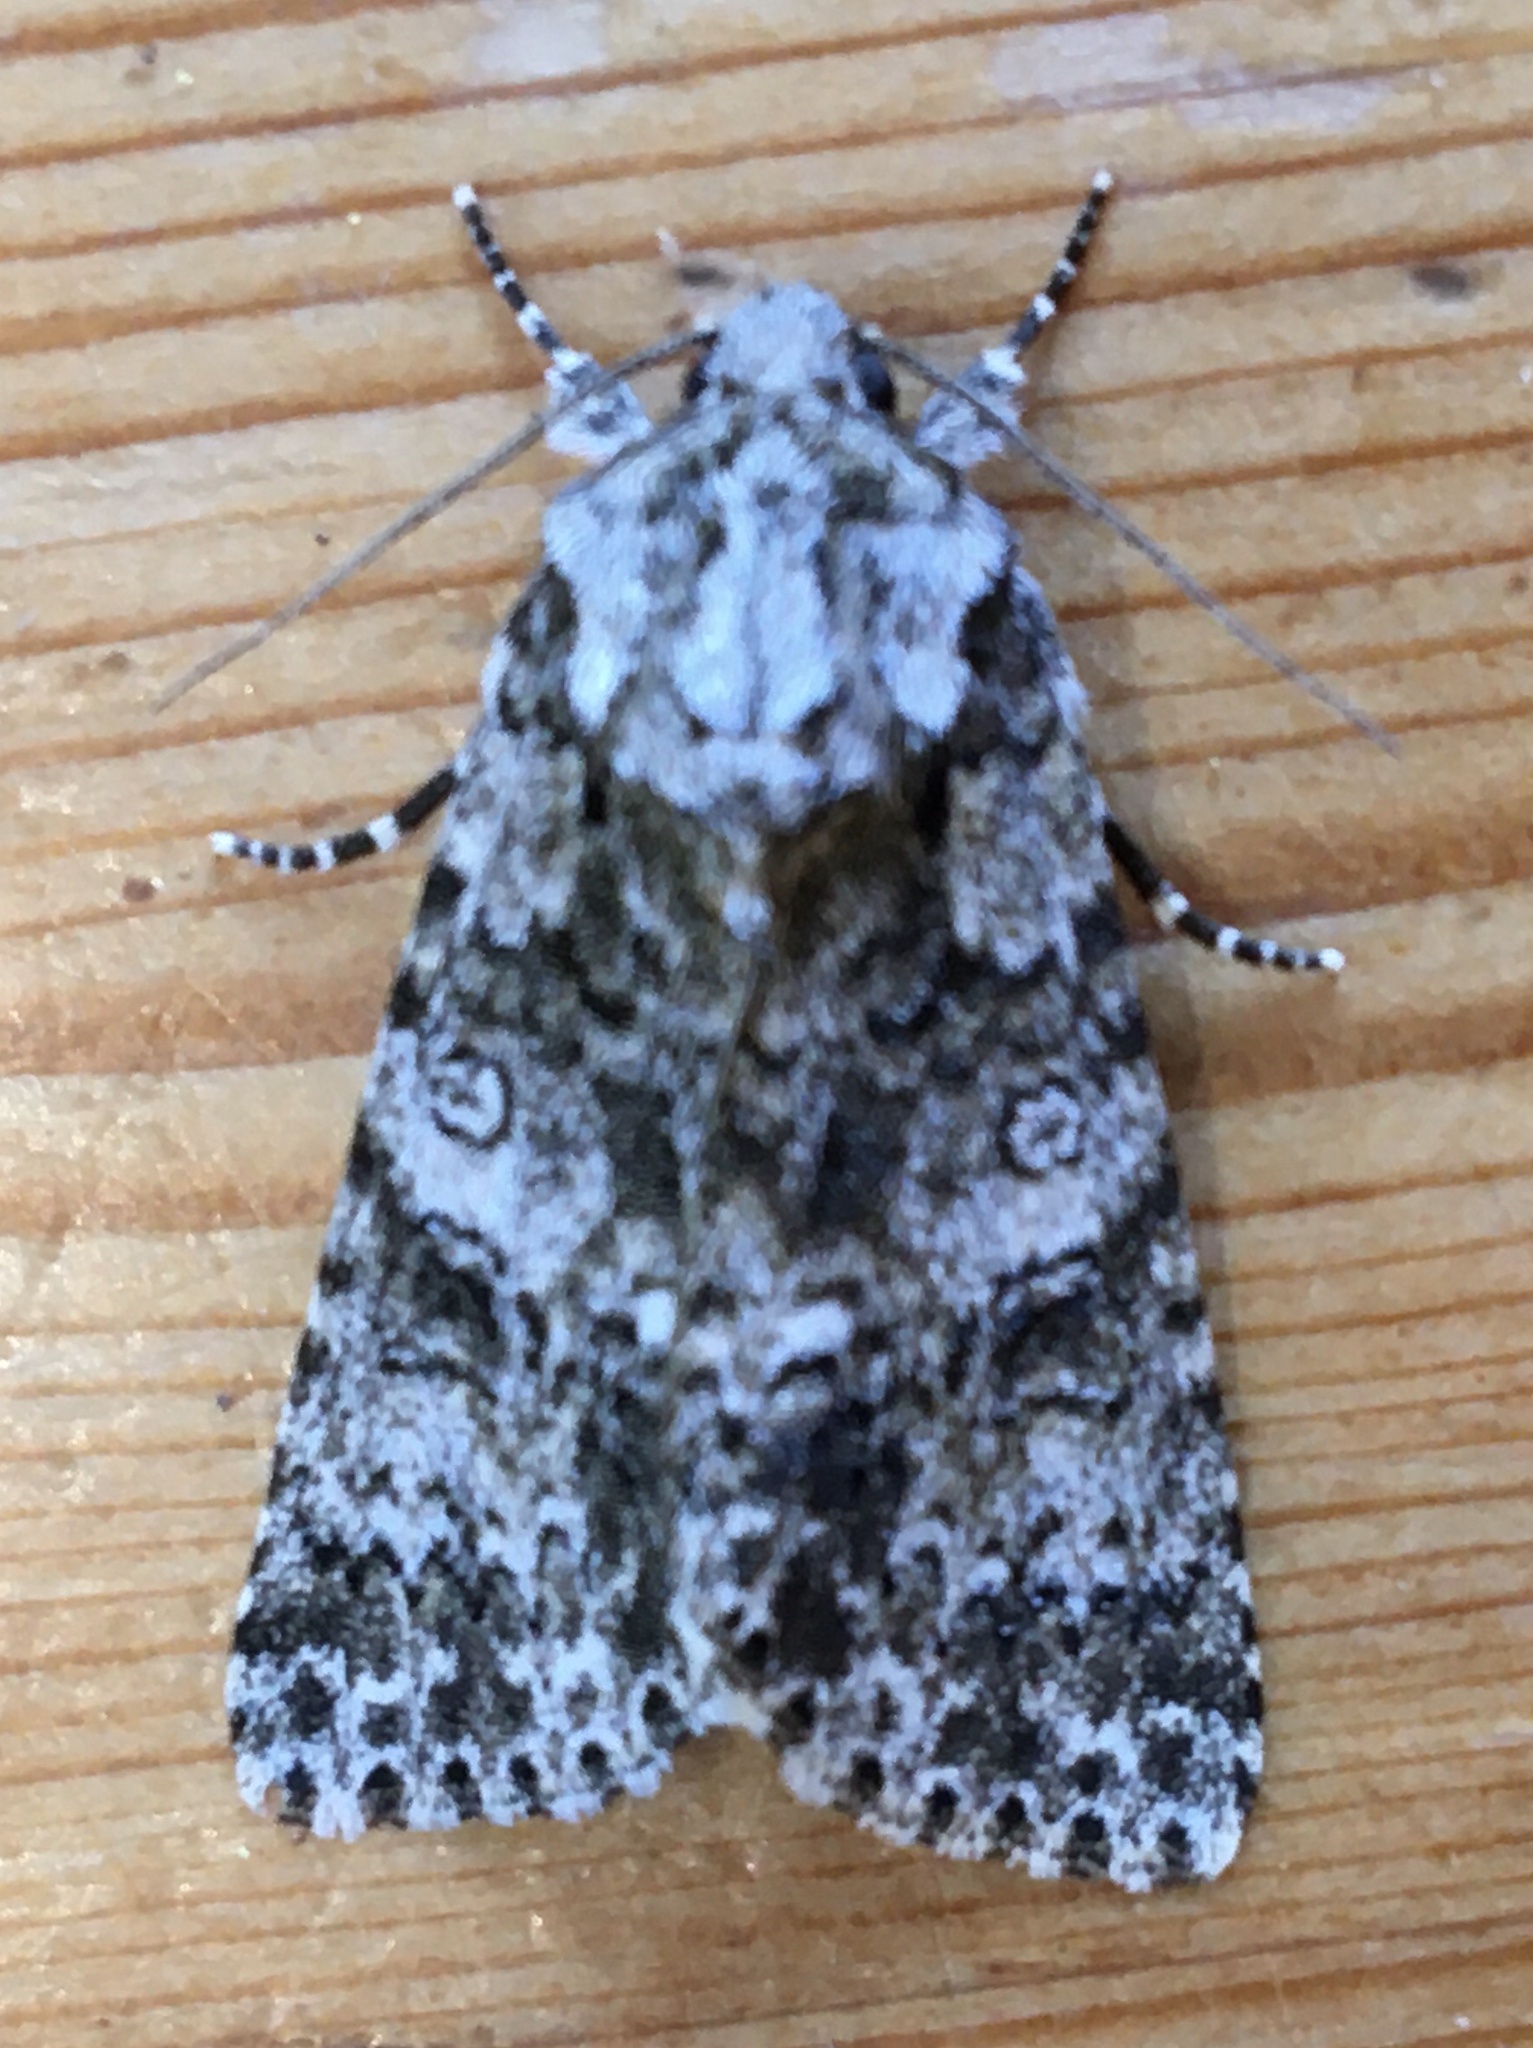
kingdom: Animalia
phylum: Arthropoda
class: Insecta
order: Lepidoptera
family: Noctuidae
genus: Acronicta
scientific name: Acronicta rumicis
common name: Knot grass
